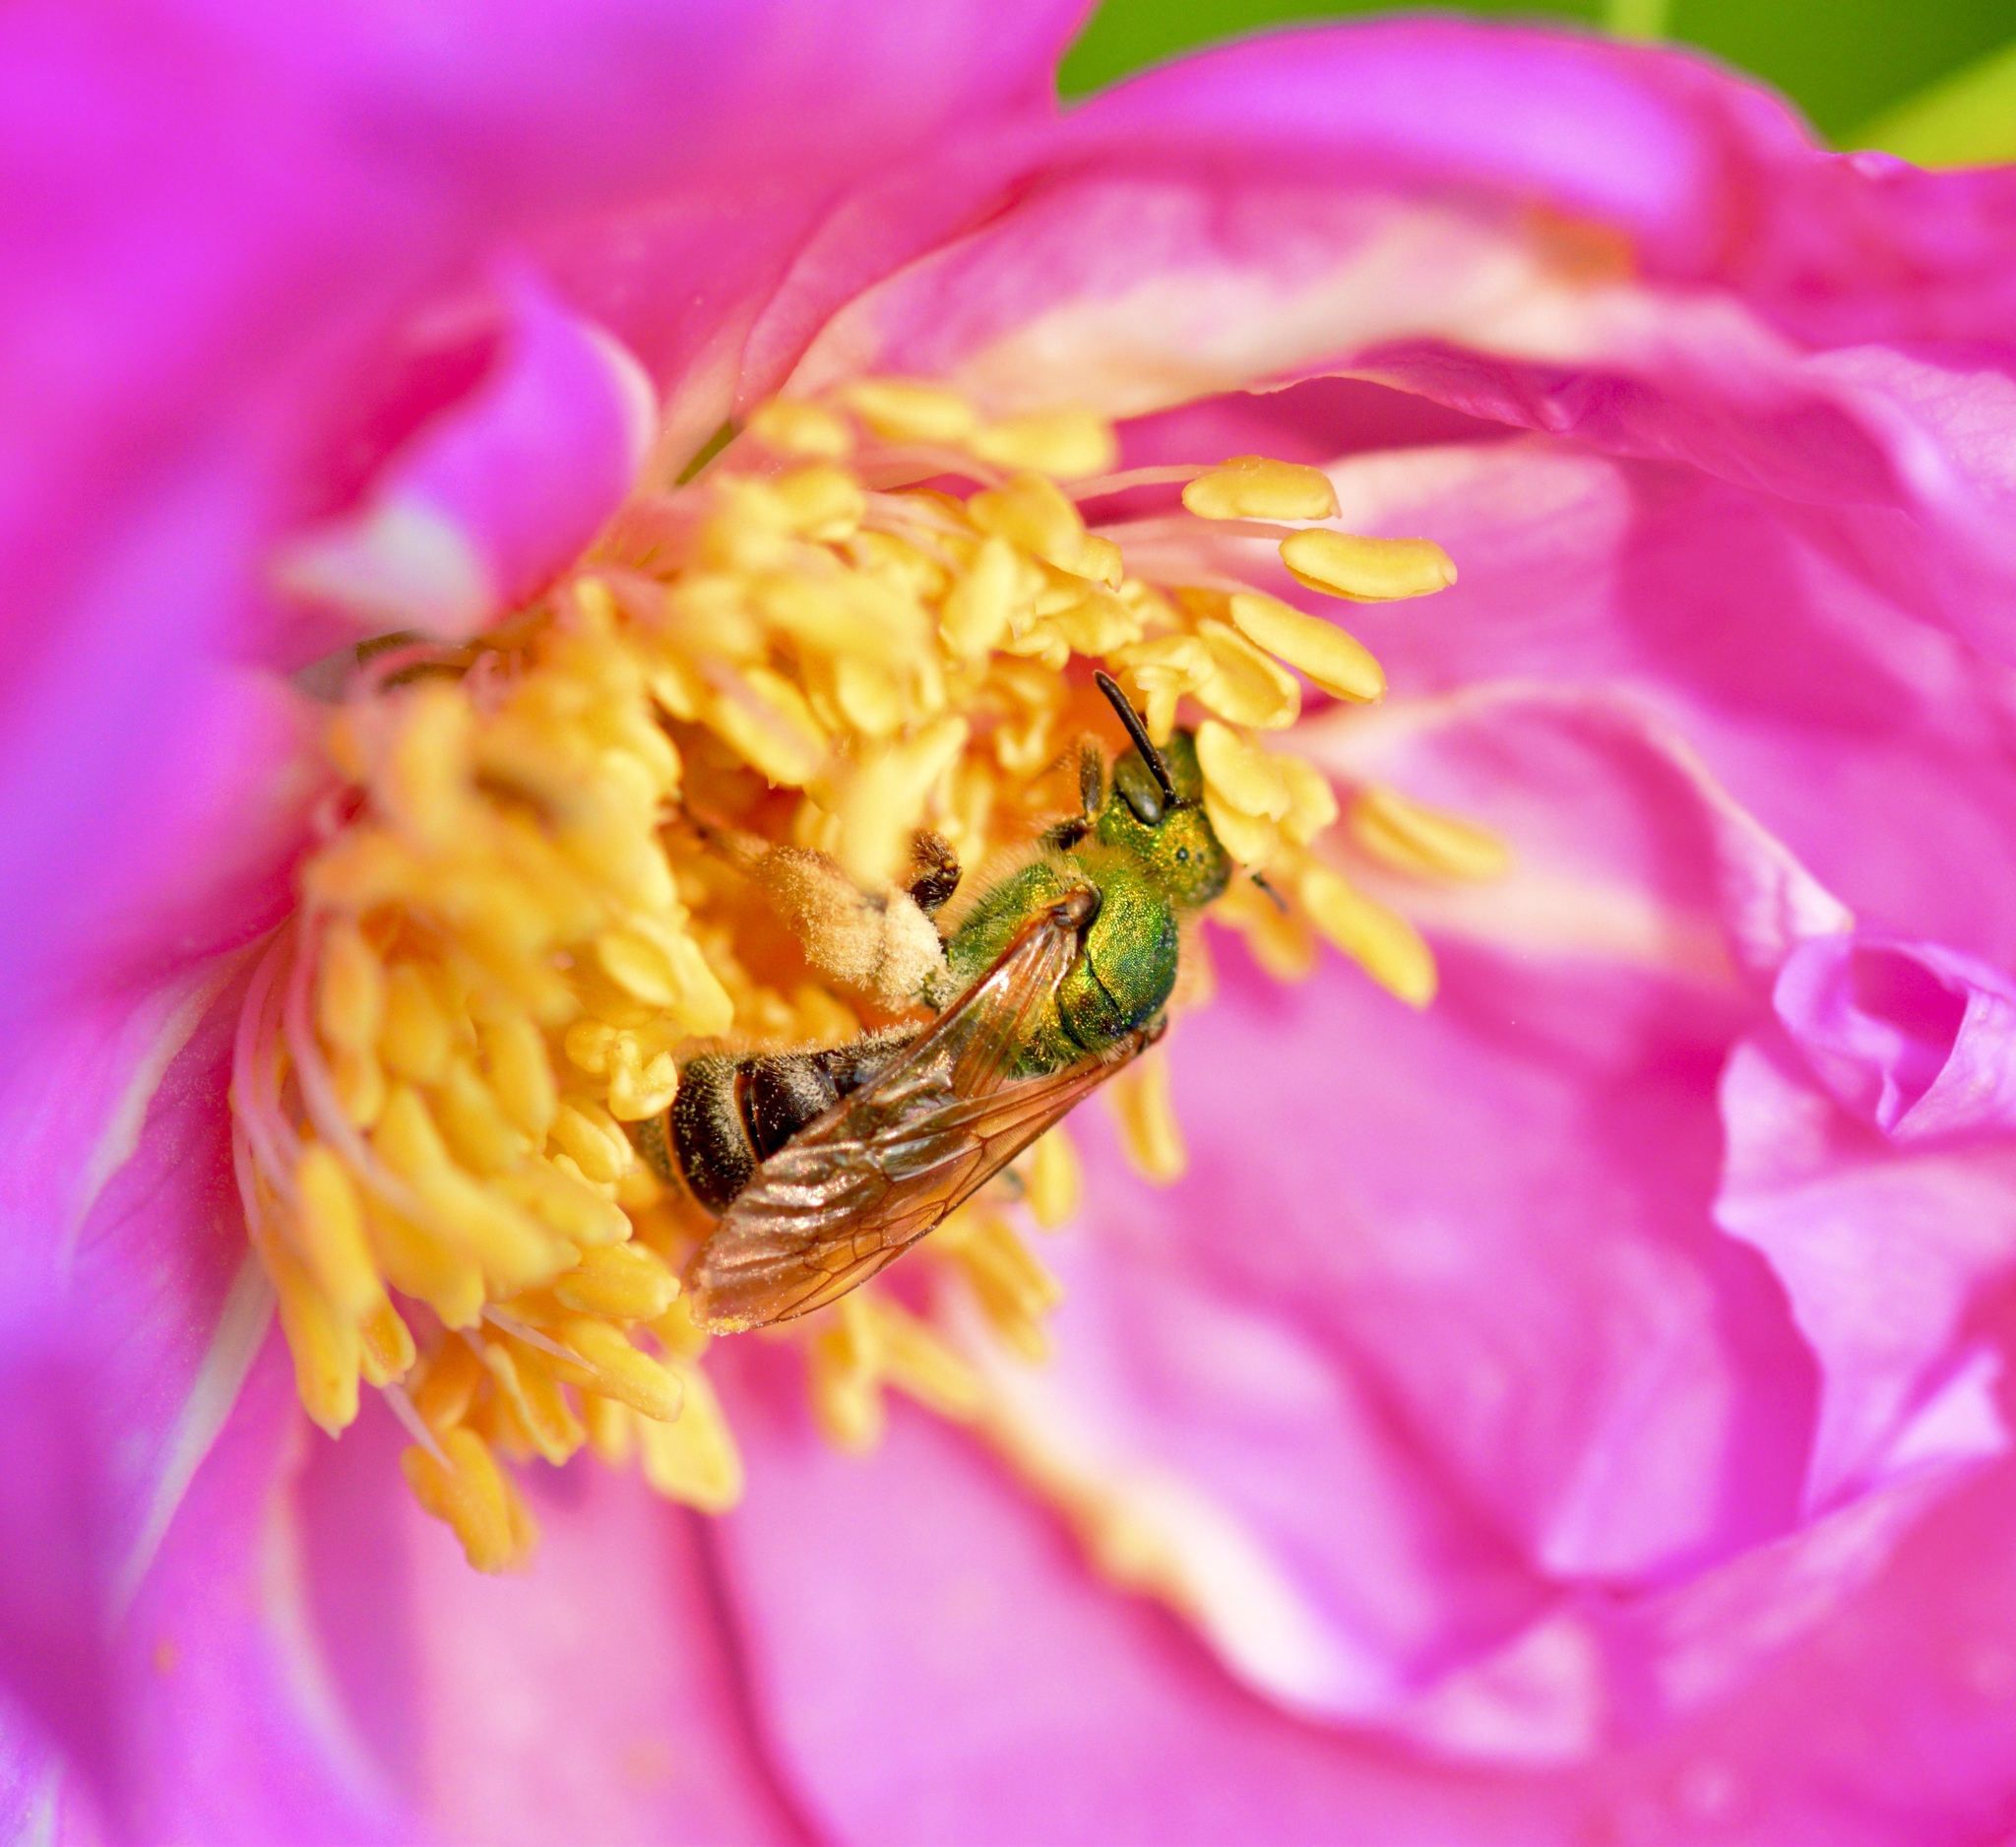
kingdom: Animalia
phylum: Arthropoda
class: Insecta
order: Hymenoptera
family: Halictidae
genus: Agapostemon
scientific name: Agapostemon virescens
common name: Bicolored striped sweat bee
